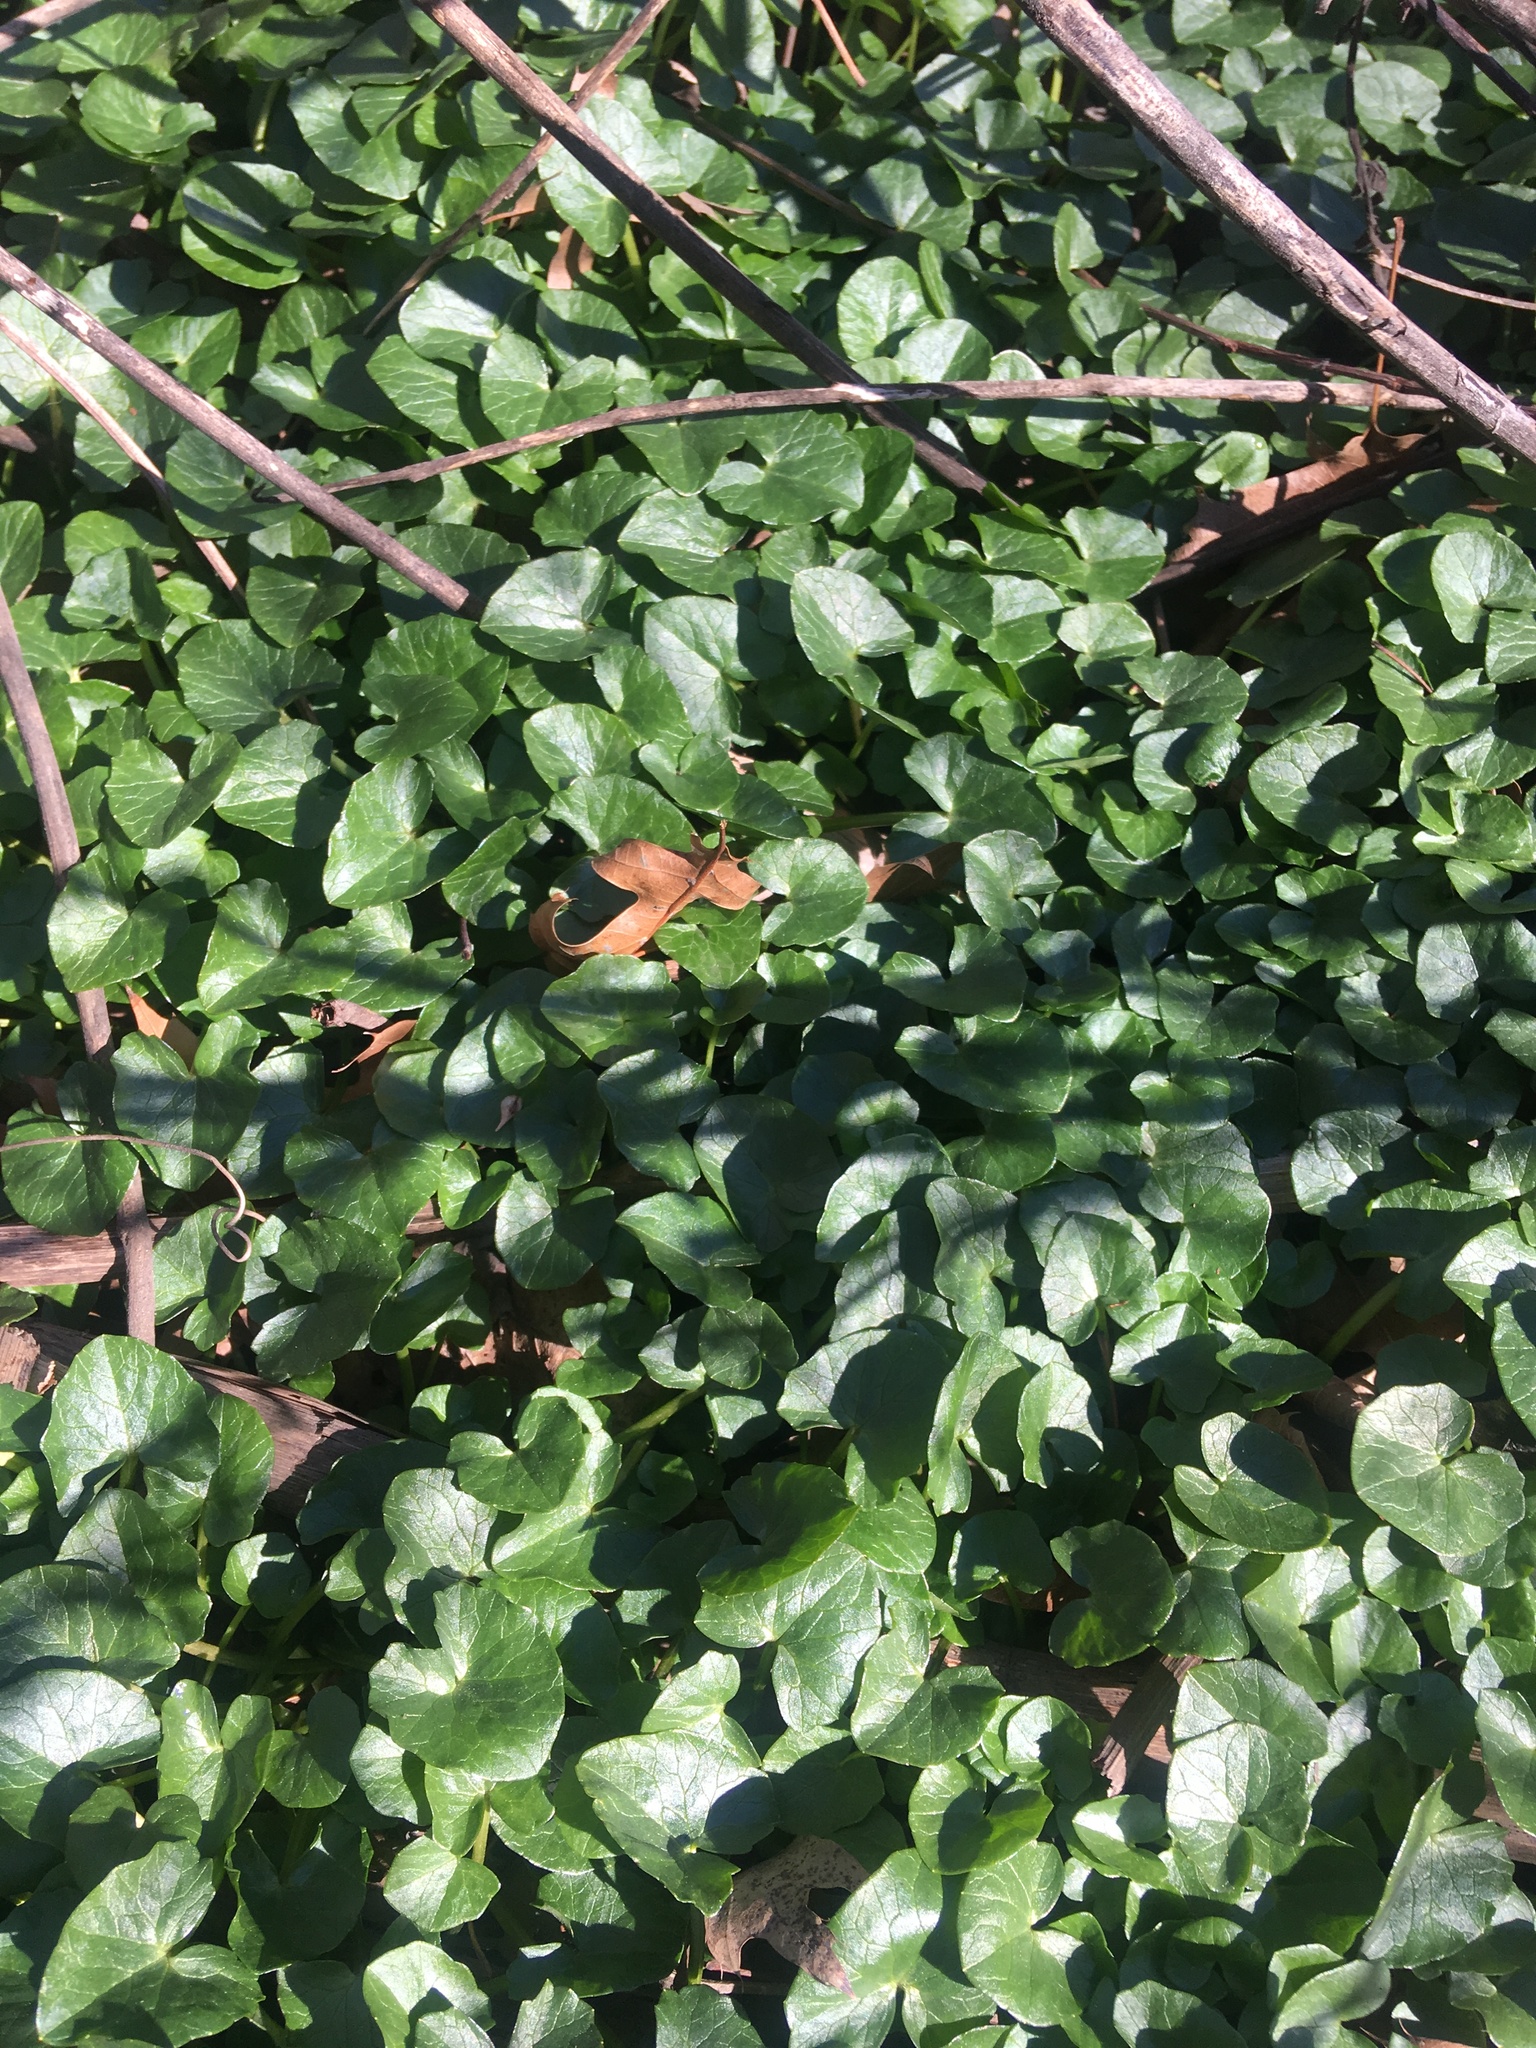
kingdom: Plantae
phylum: Tracheophyta
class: Magnoliopsida
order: Ranunculales
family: Ranunculaceae
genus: Ficaria
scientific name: Ficaria verna
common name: Lesser celandine
